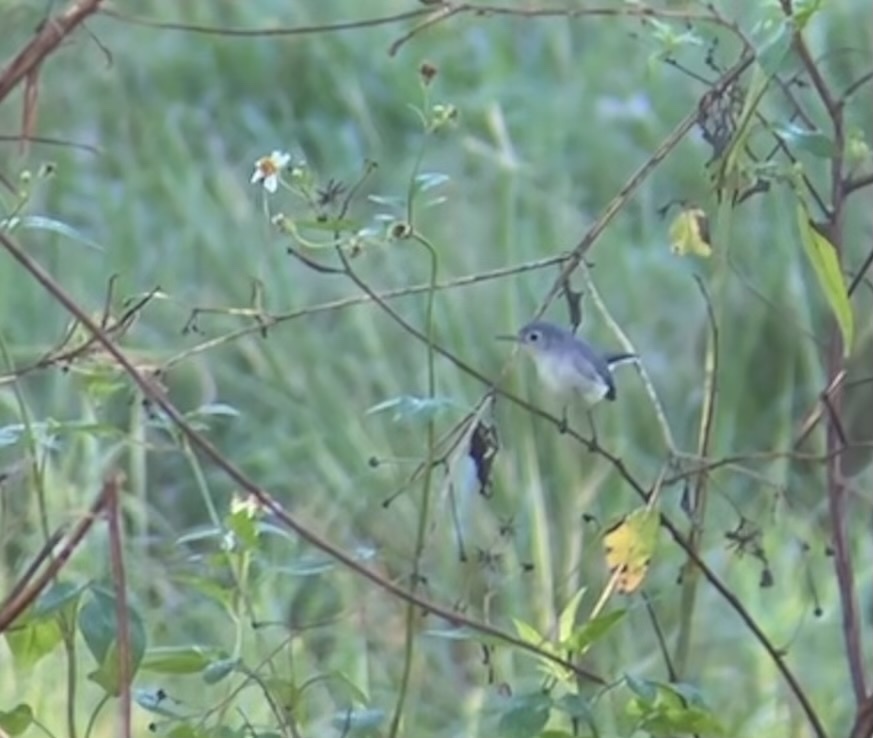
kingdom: Animalia
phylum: Chordata
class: Aves
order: Passeriformes
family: Polioptilidae
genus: Polioptila
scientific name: Polioptila caerulea
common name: Blue-gray gnatcatcher
